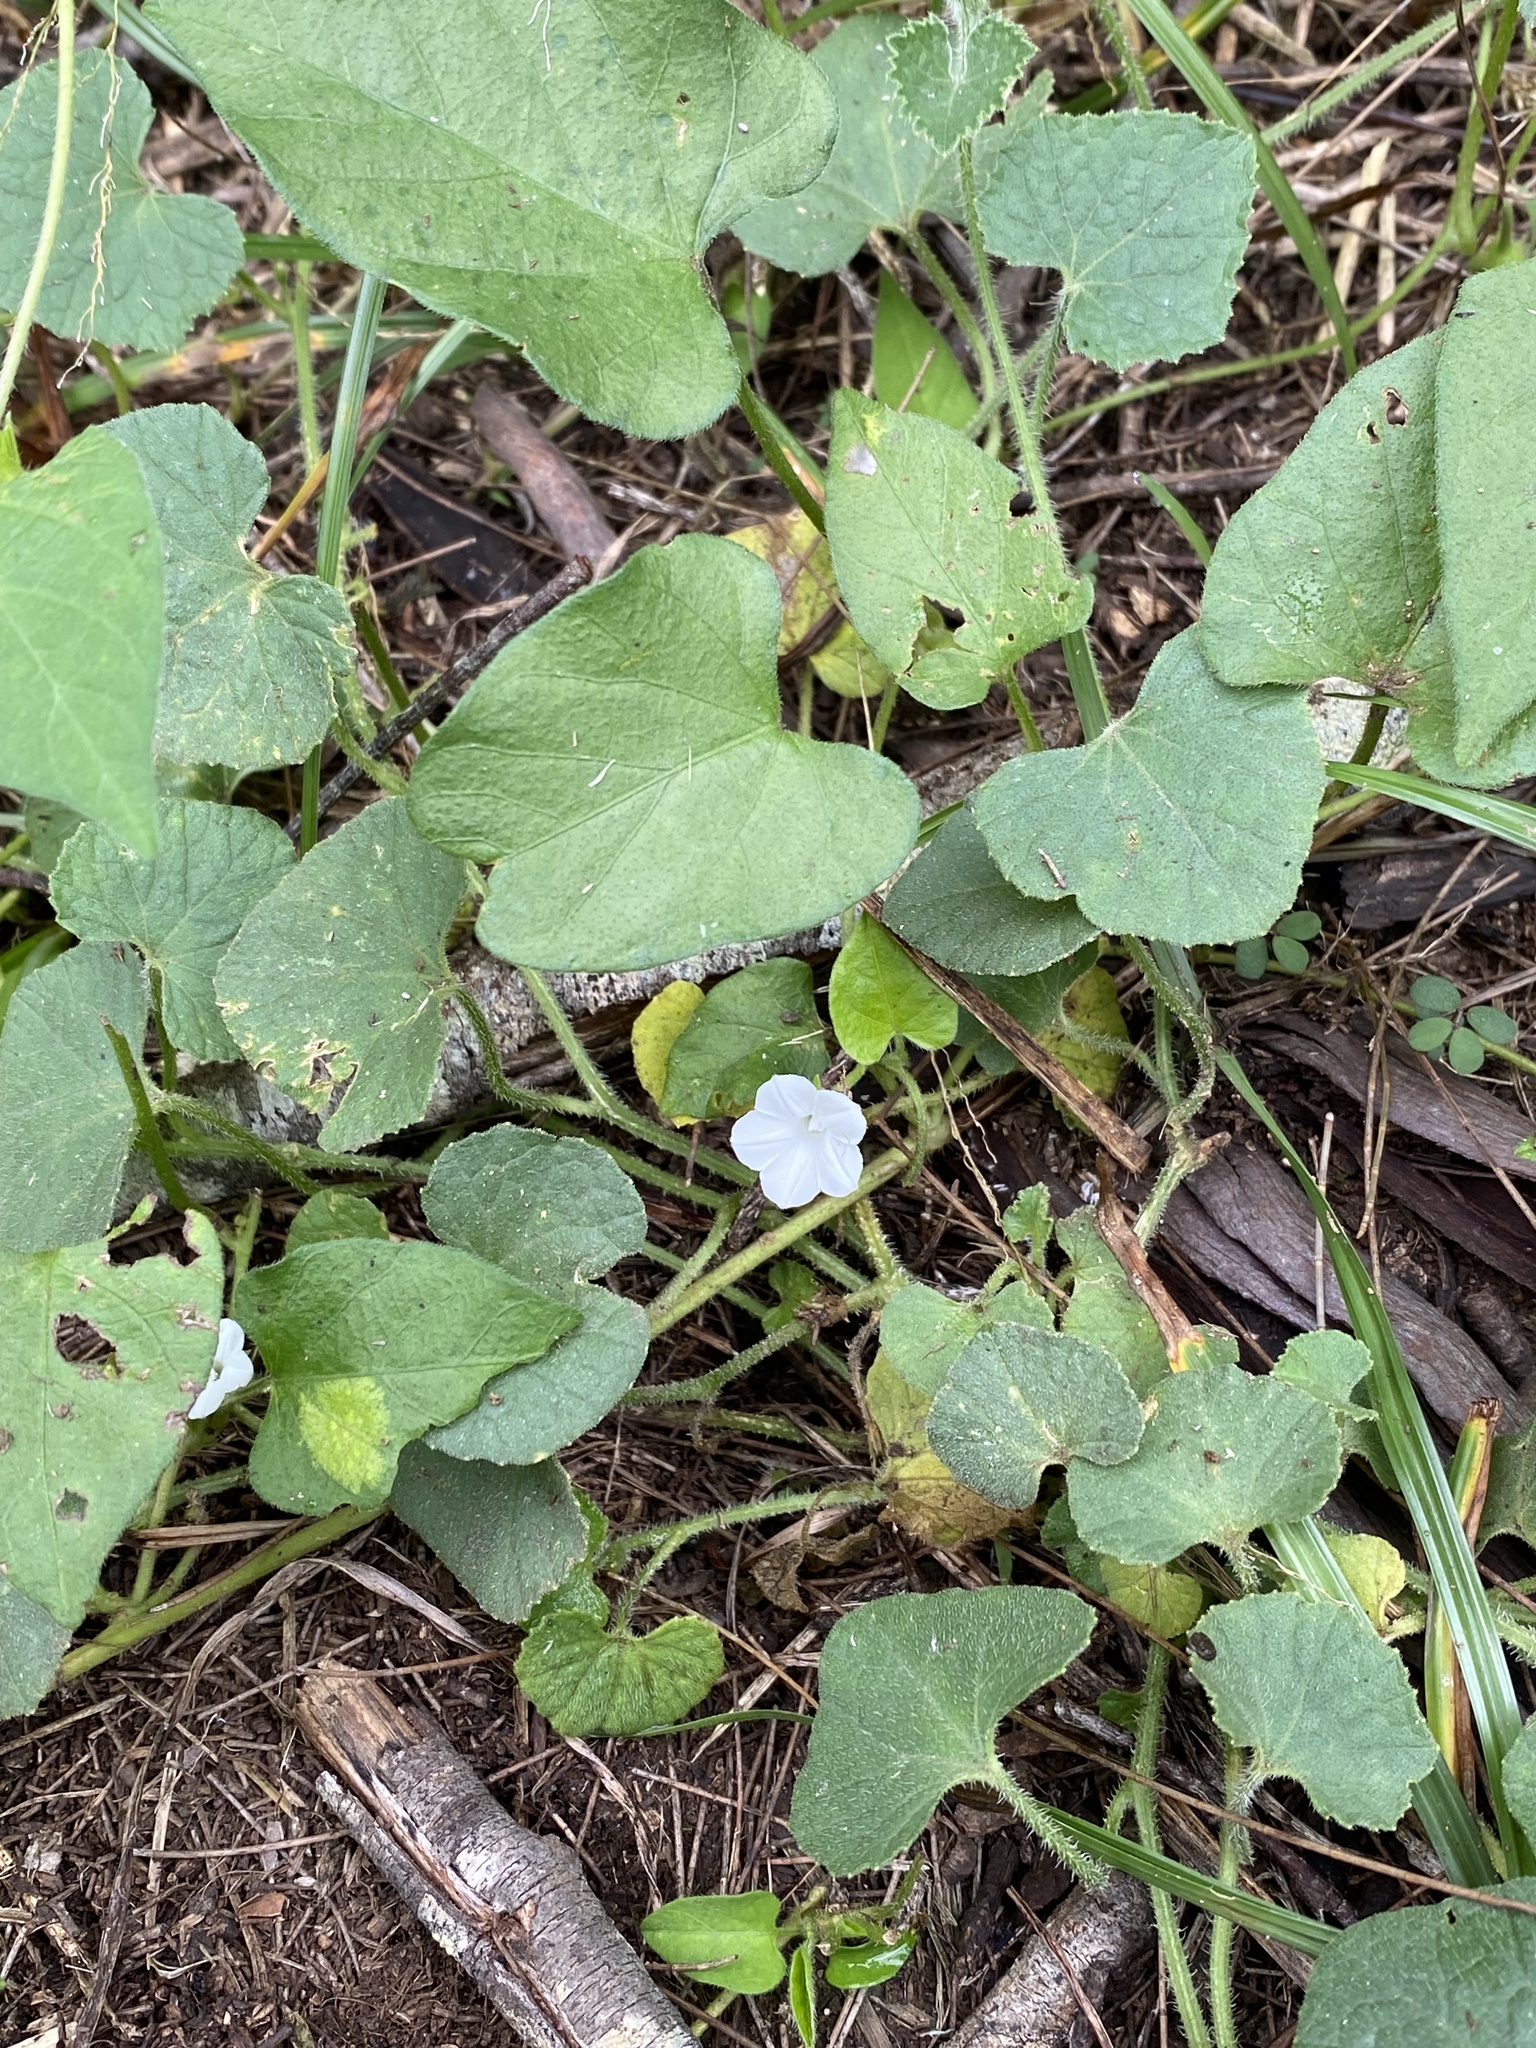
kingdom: Plantae
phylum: Tracheophyta
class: Magnoliopsida
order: Solanales
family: Convolvulaceae
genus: Ipomoea
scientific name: Ipomoea biflora
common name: Bellvine
